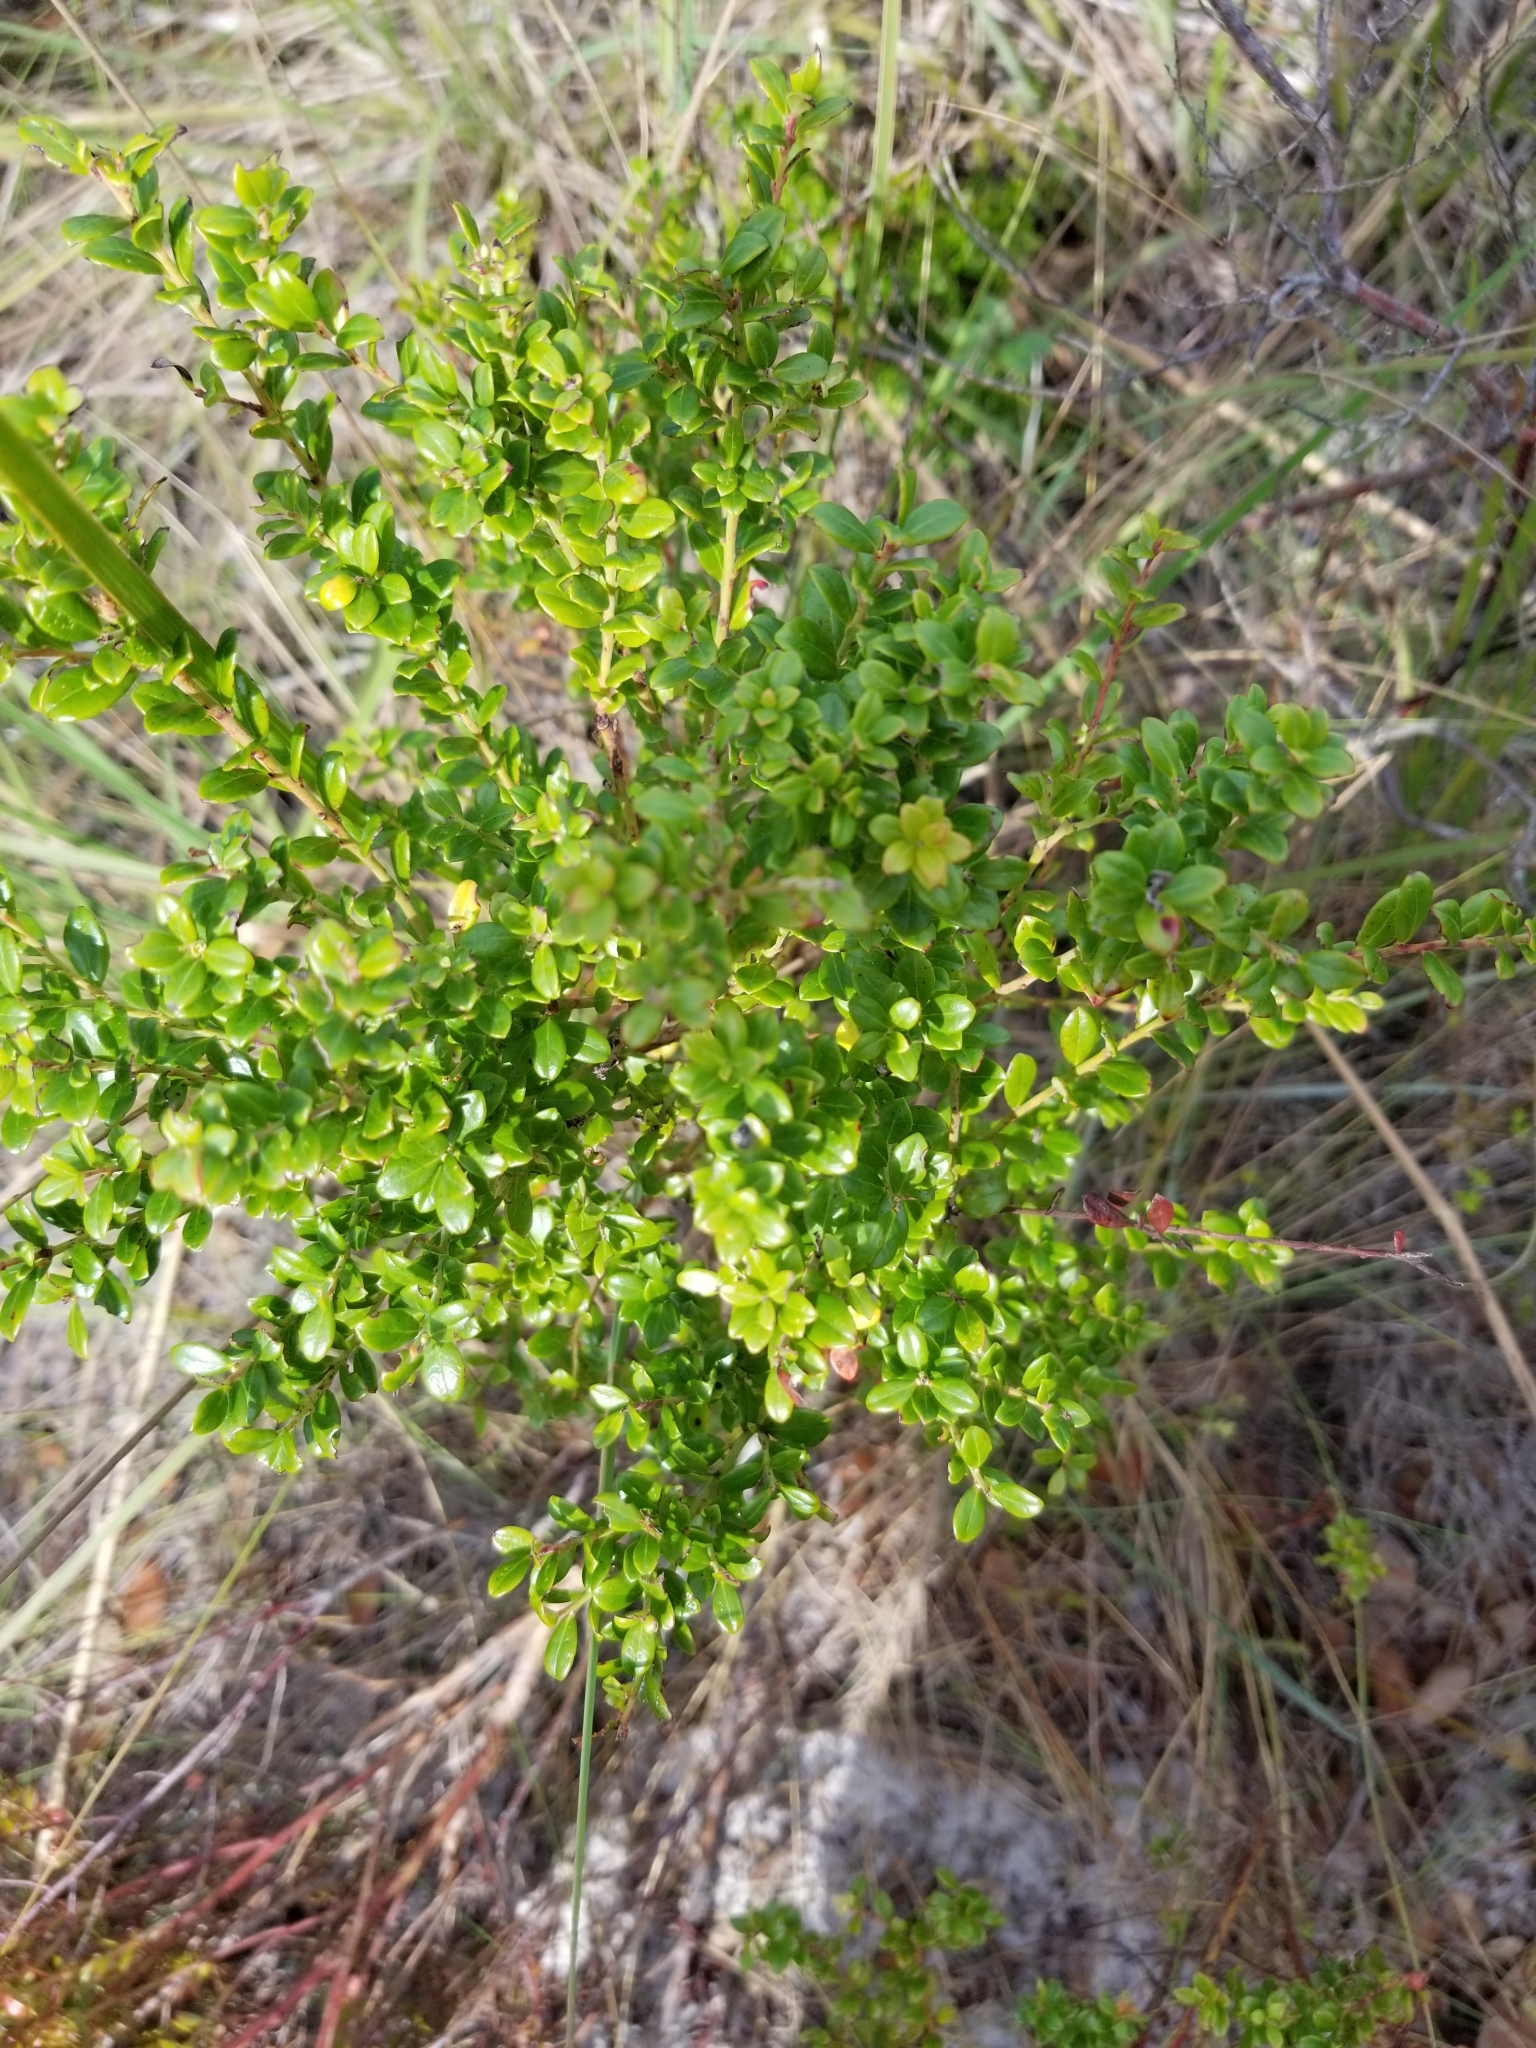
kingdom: Plantae
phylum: Tracheophyta
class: Magnoliopsida
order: Ericales
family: Ericaceae
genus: Vaccinium
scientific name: Vaccinium myrsinites
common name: Evergreen blueberry
